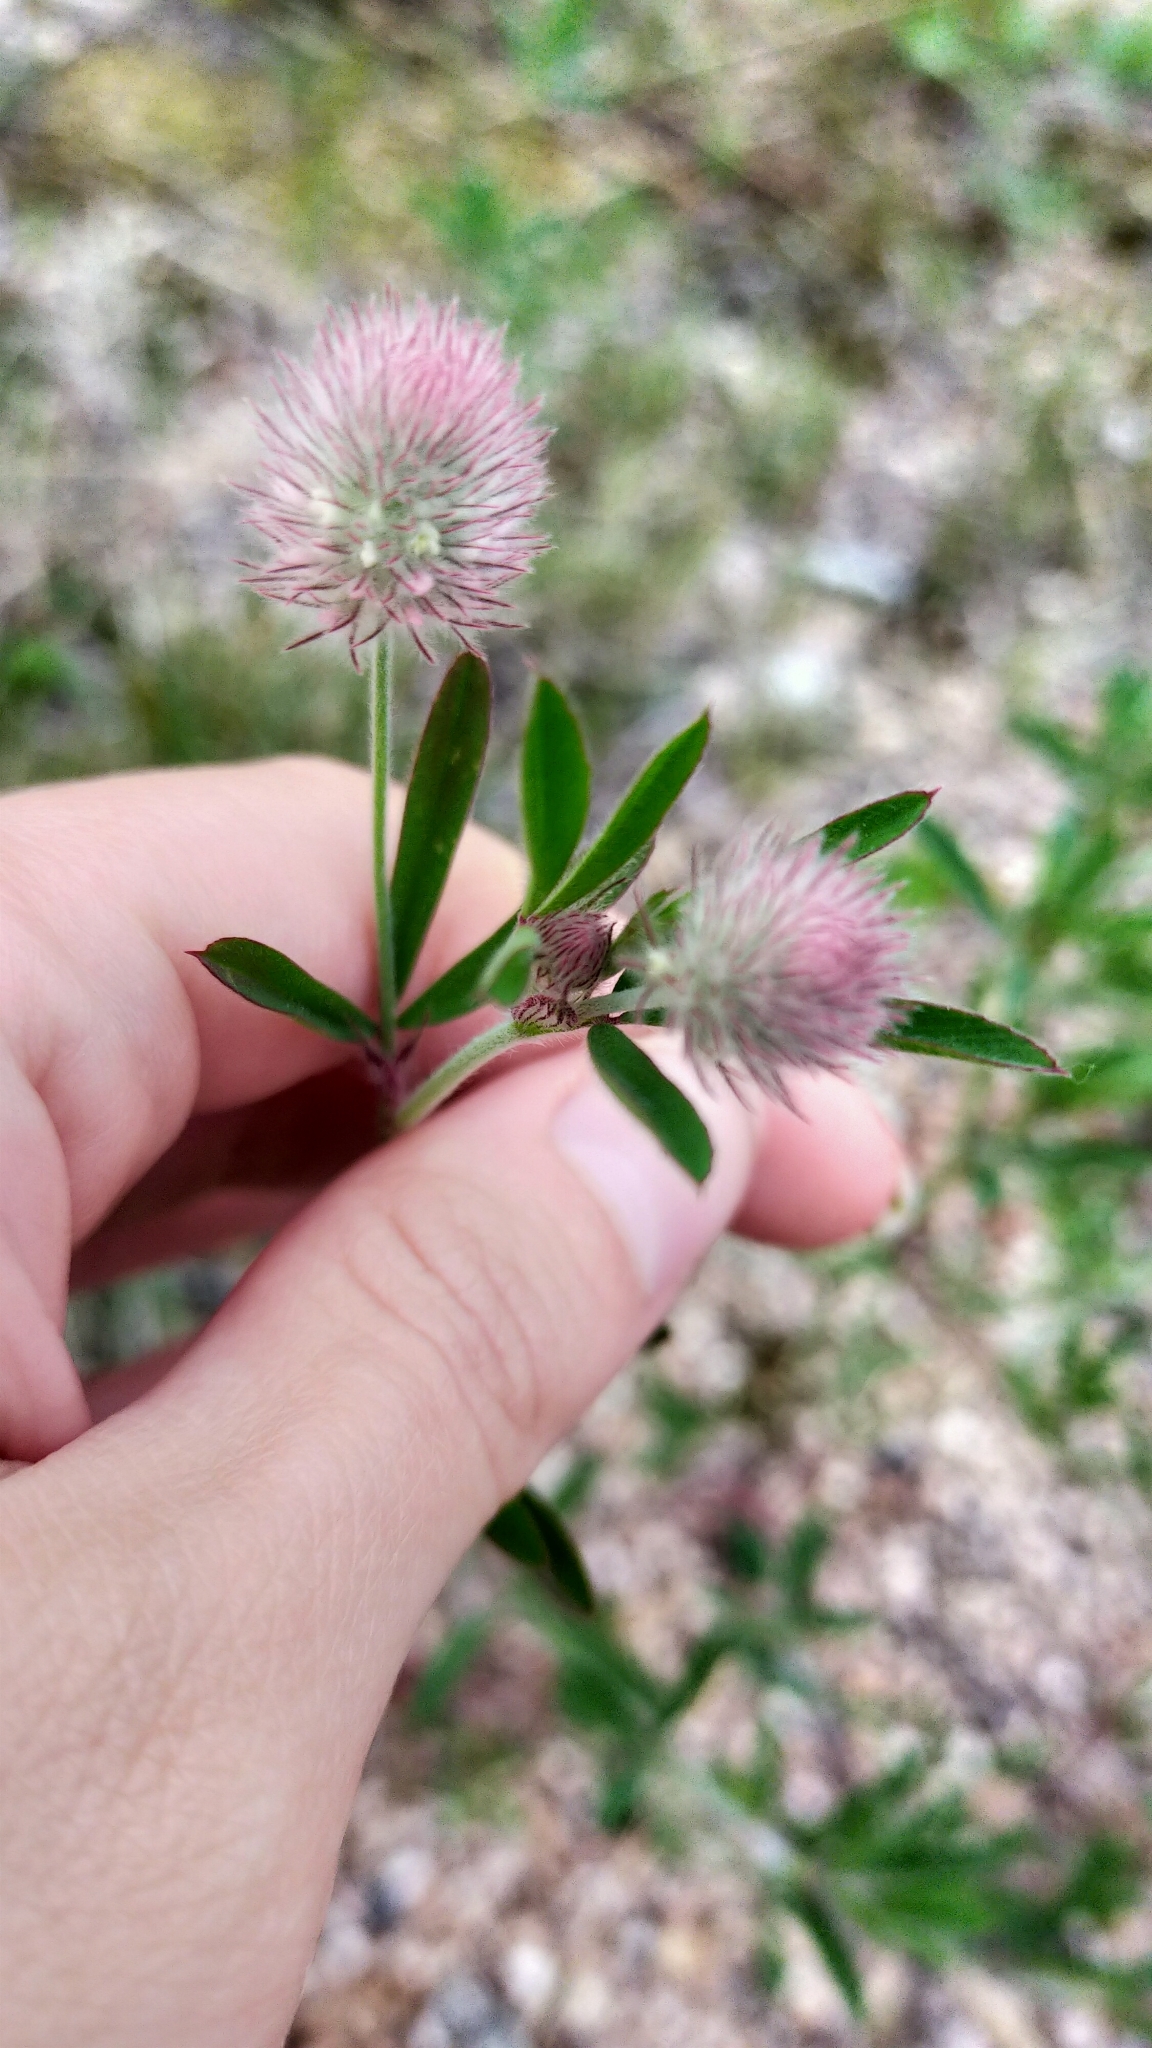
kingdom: Plantae
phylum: Tracheophyta
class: Magnoliopsida
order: Fabales
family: Fabaceae
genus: Trifolium
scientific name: Trifolium arvense
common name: Hare's-foot clover
